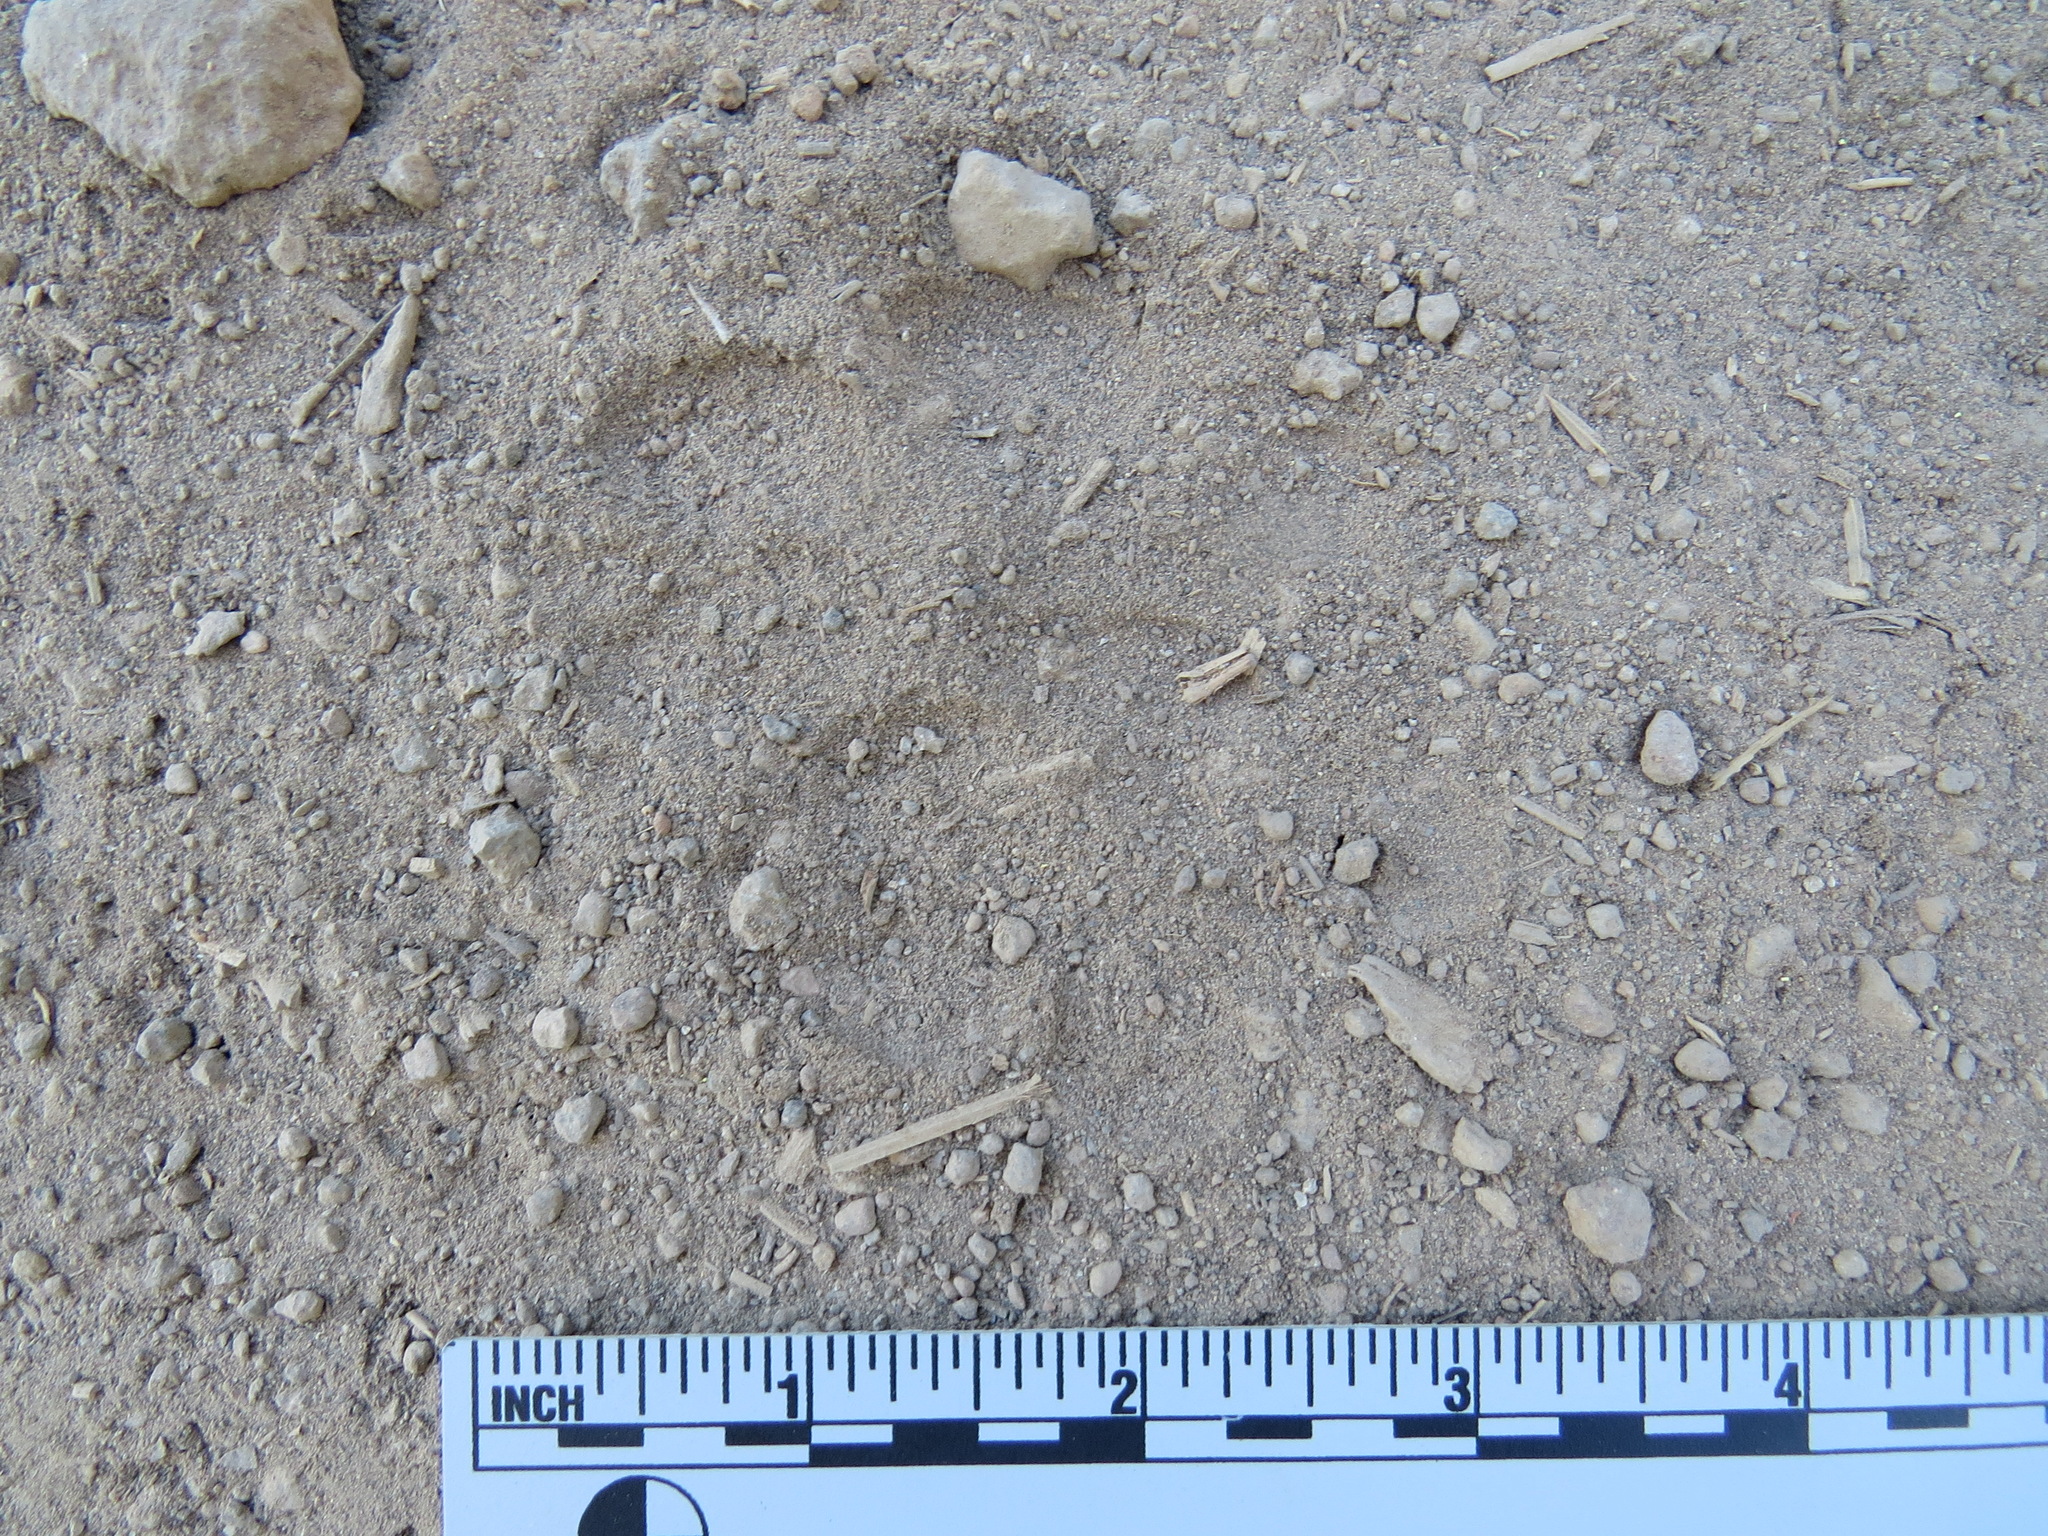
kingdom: Animalia
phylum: Chordata
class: Mammalia
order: Carnivora
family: Canidae
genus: Canis
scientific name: Canis latrans
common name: Coyote
